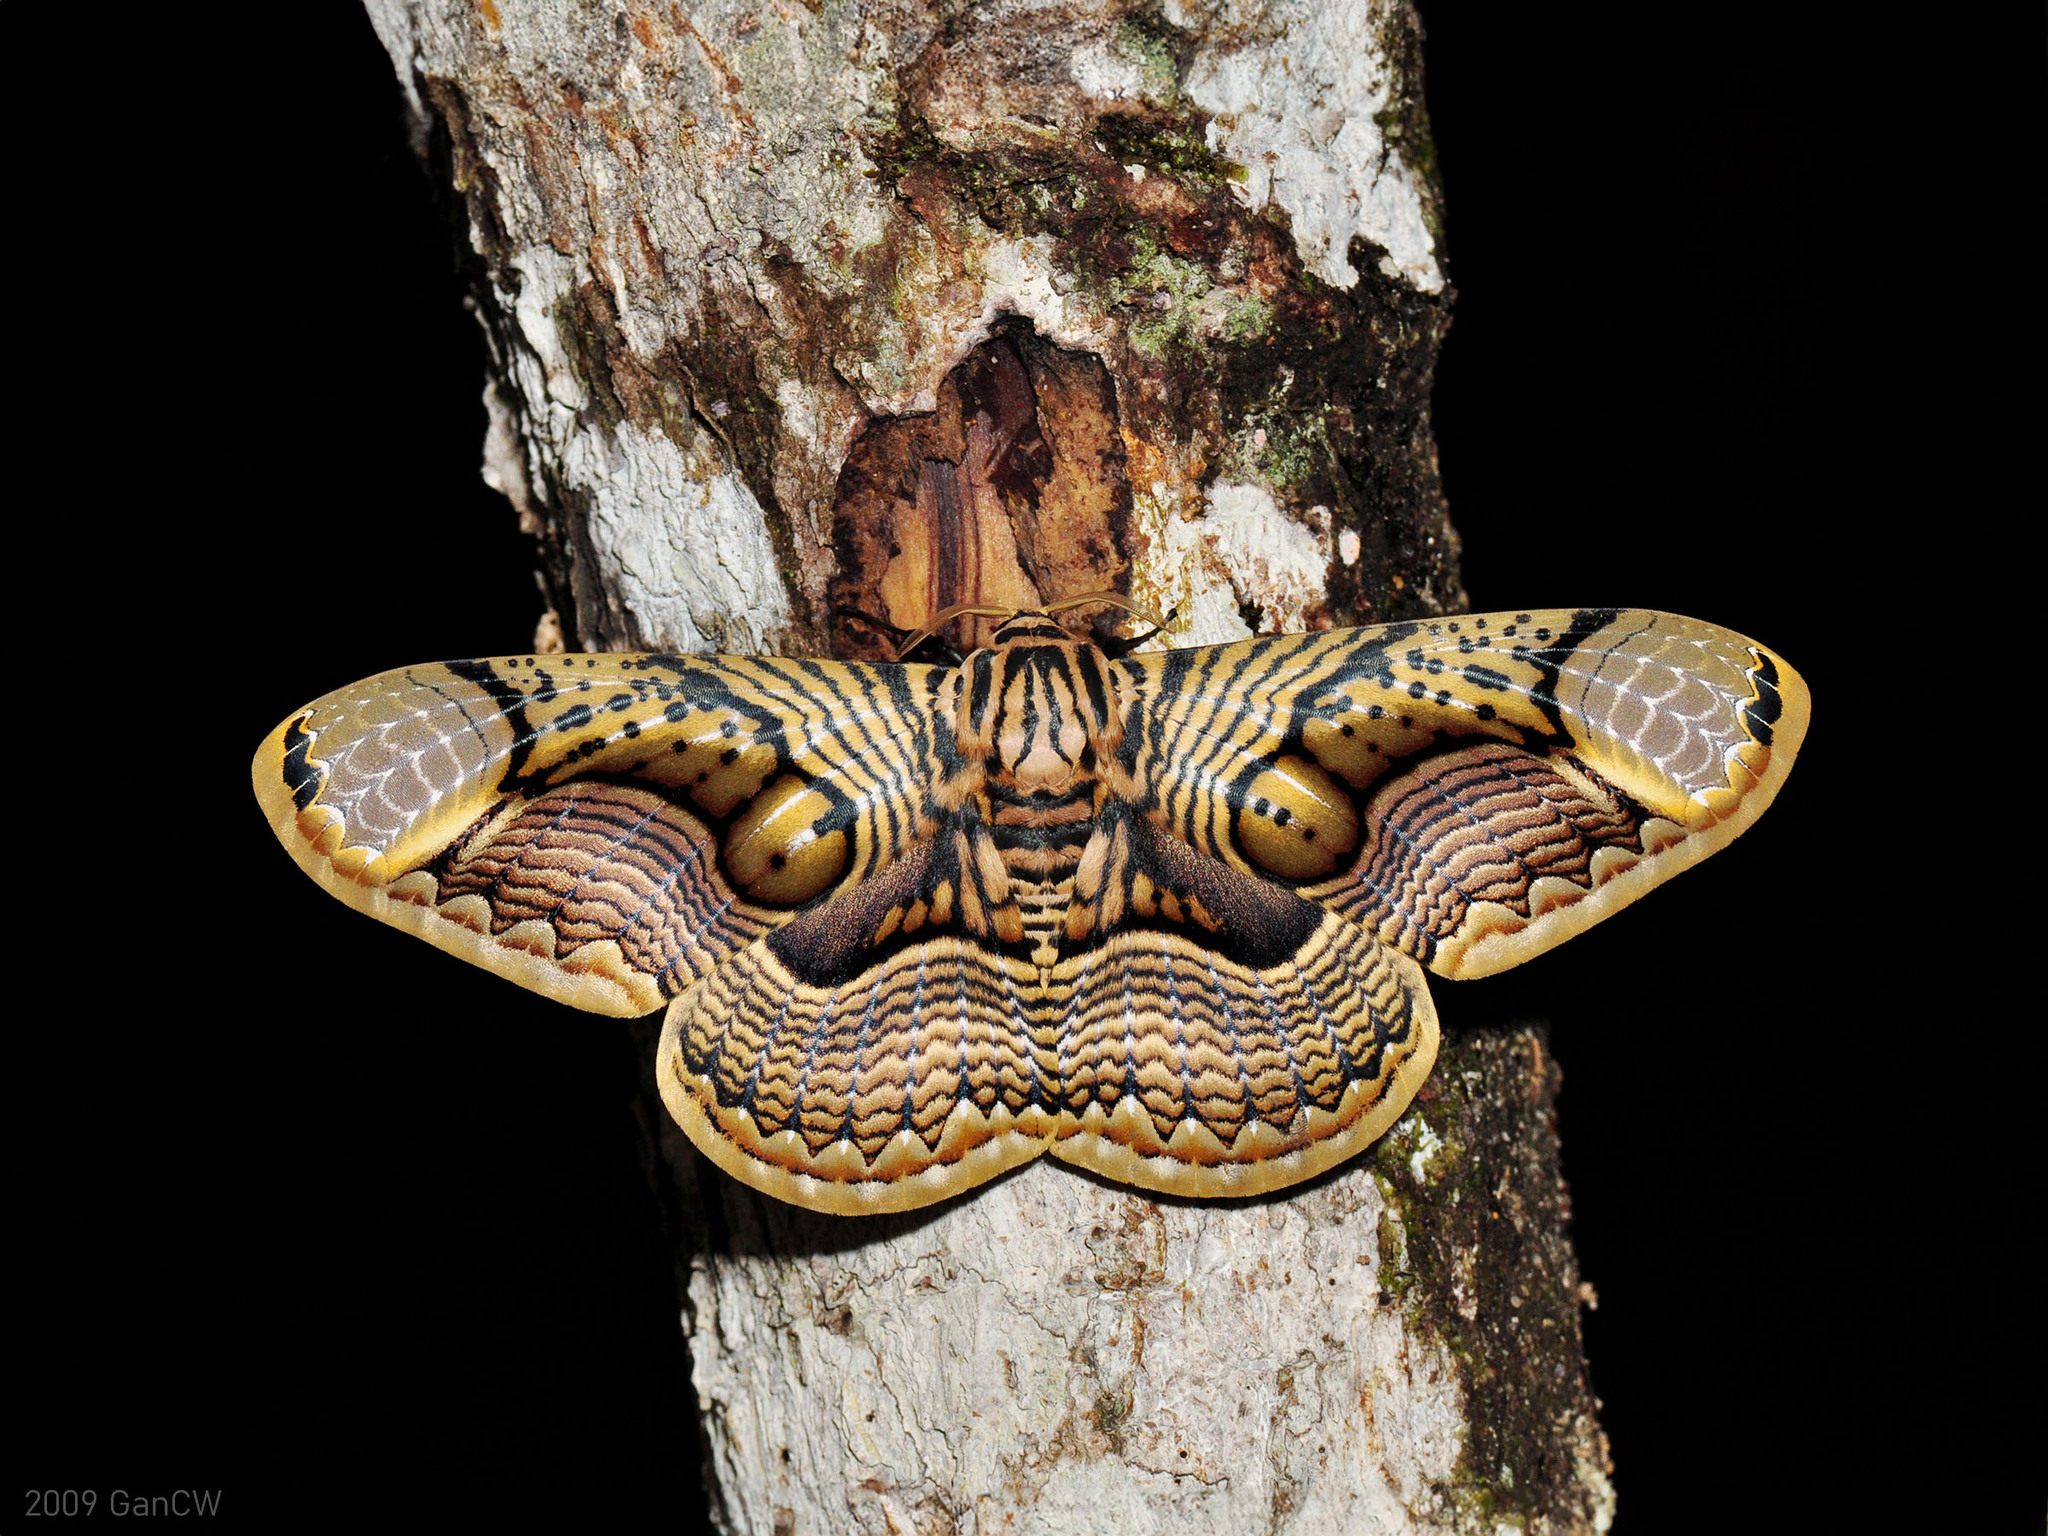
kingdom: Animalia
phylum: Arthropoda
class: Insecta
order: Lepidoptera
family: Brahmaeidae
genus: Brahmaea
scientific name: Brahmaea hearseyi
